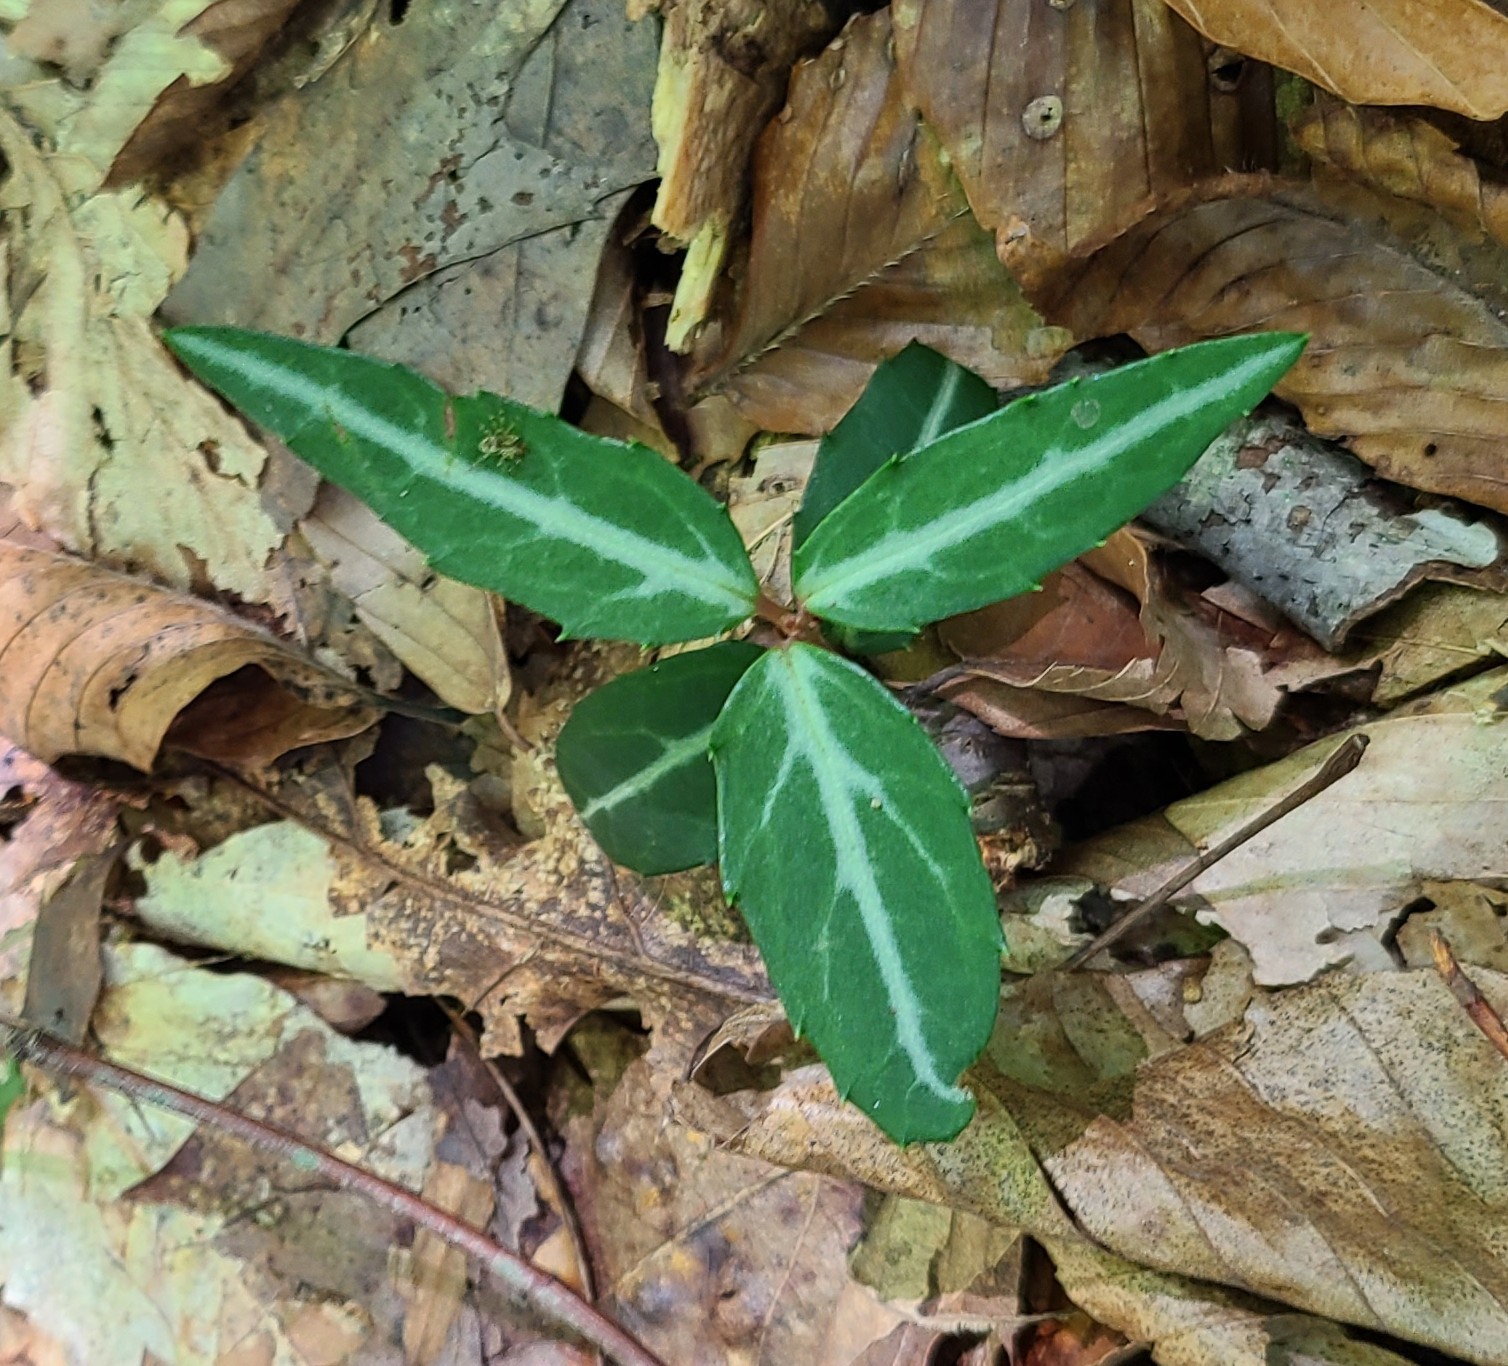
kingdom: Plantae
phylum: Tracheophyta
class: Magnoliopsida
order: Ericales
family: Ericaceae
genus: Chimaphila
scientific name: Chimaphila maculata
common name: Spotted pipsissewa
